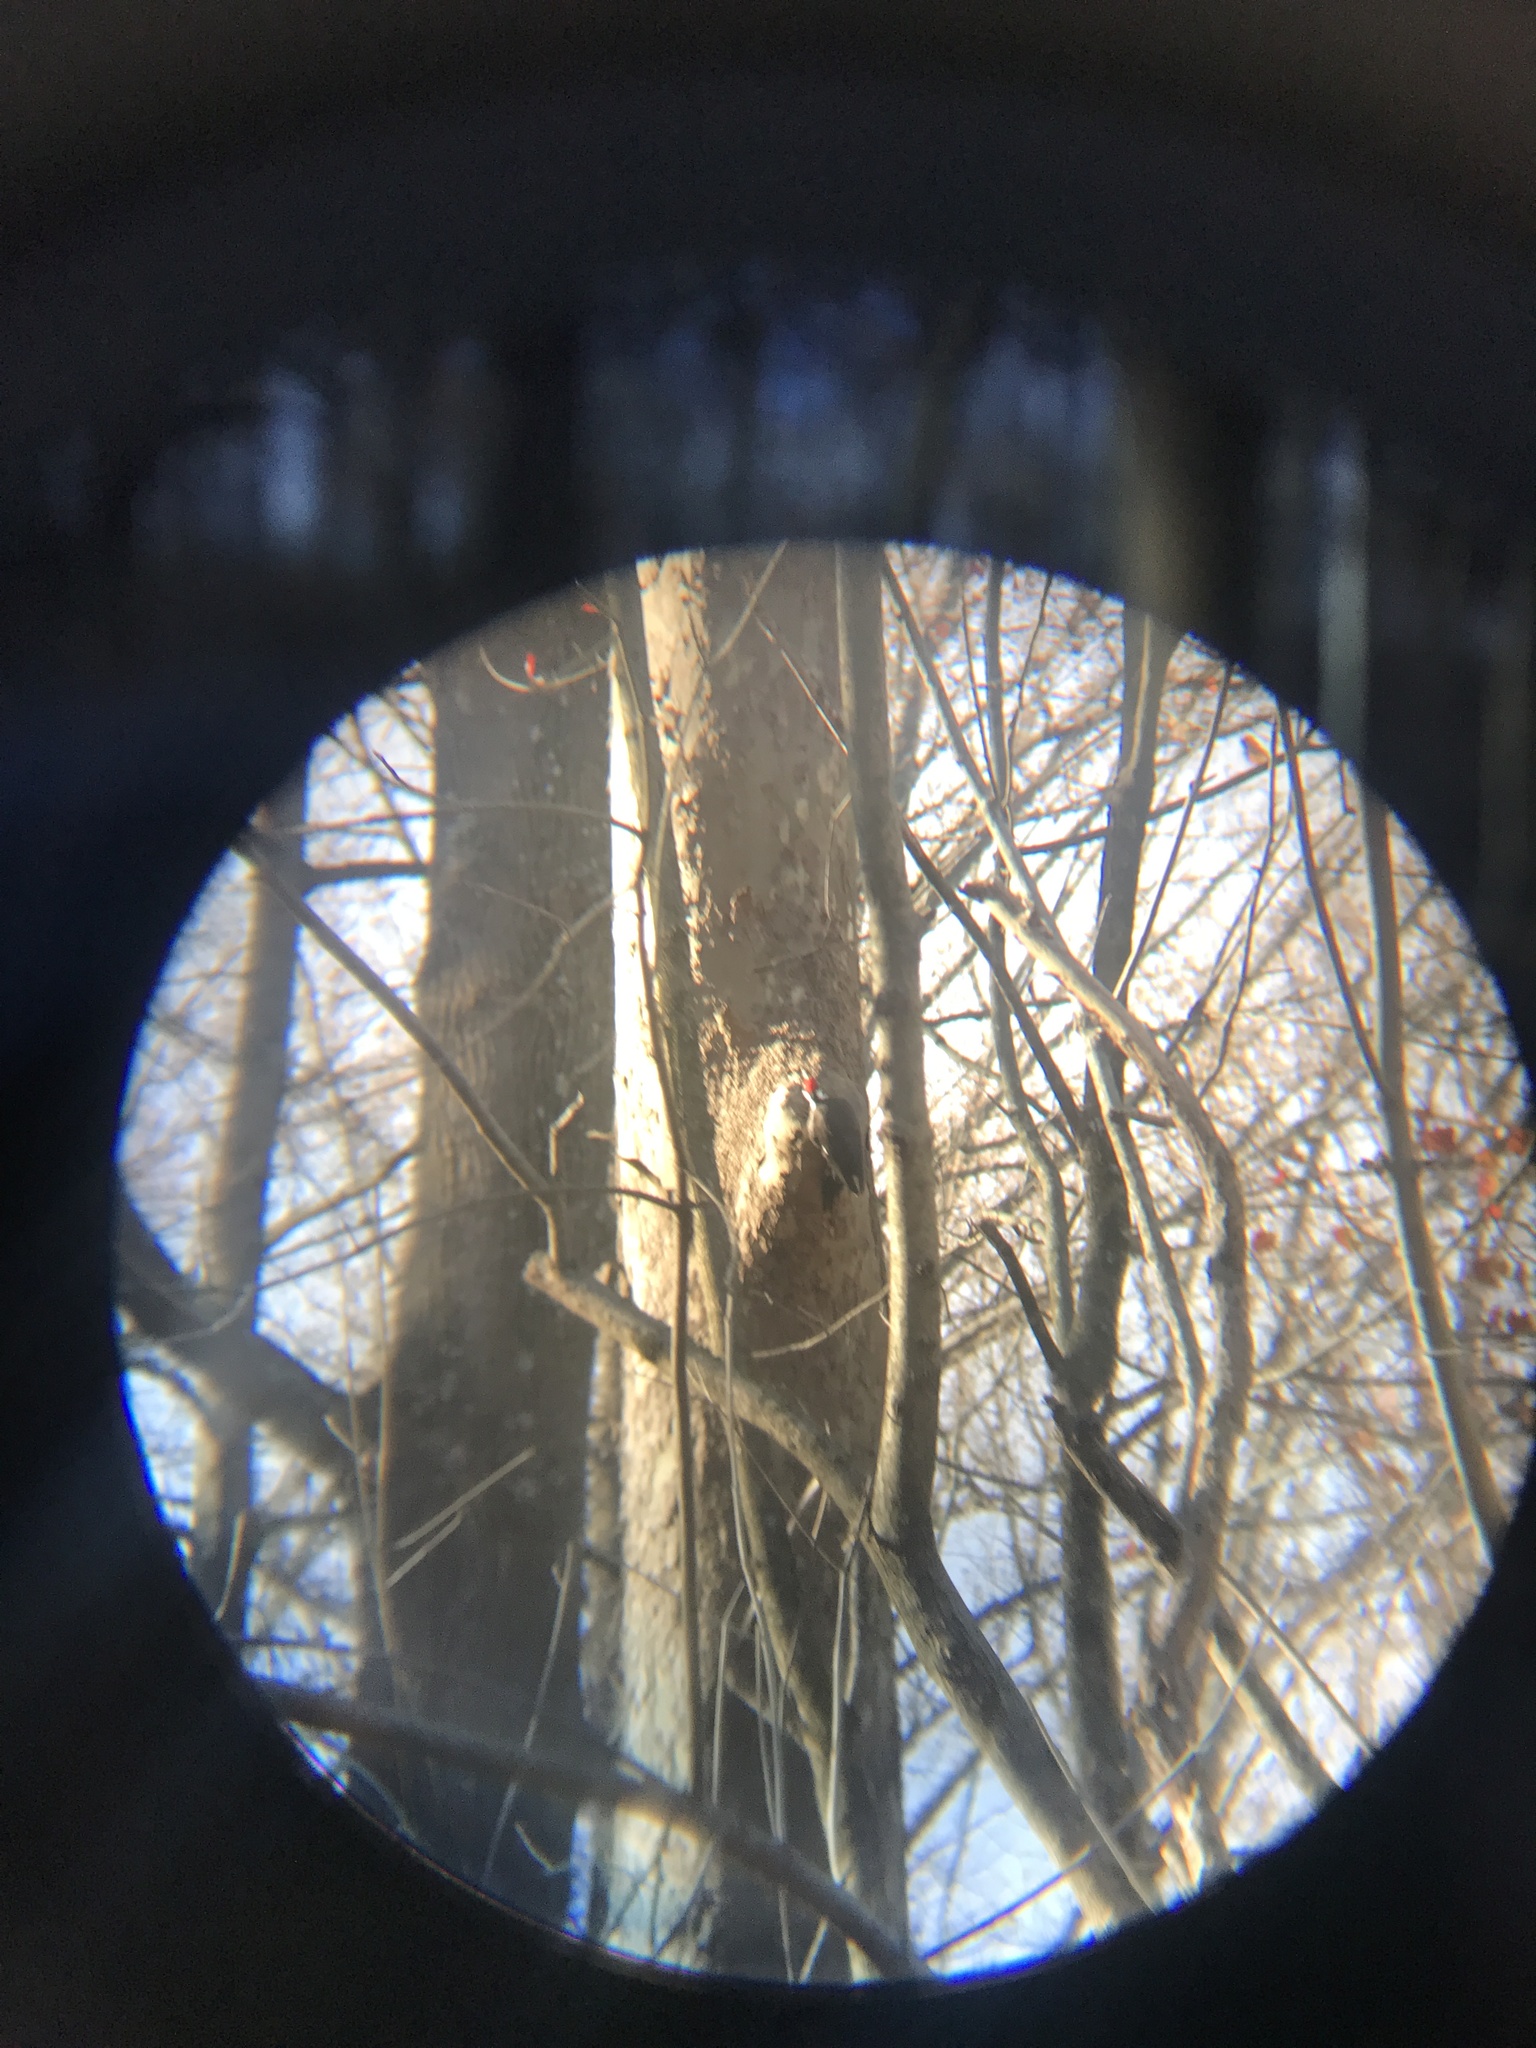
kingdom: Animalia
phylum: Chordata
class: Aves
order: Piciformes
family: Picidae
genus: Dryocopus
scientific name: Dryocopus pileatus
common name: Pileated woodpecker
